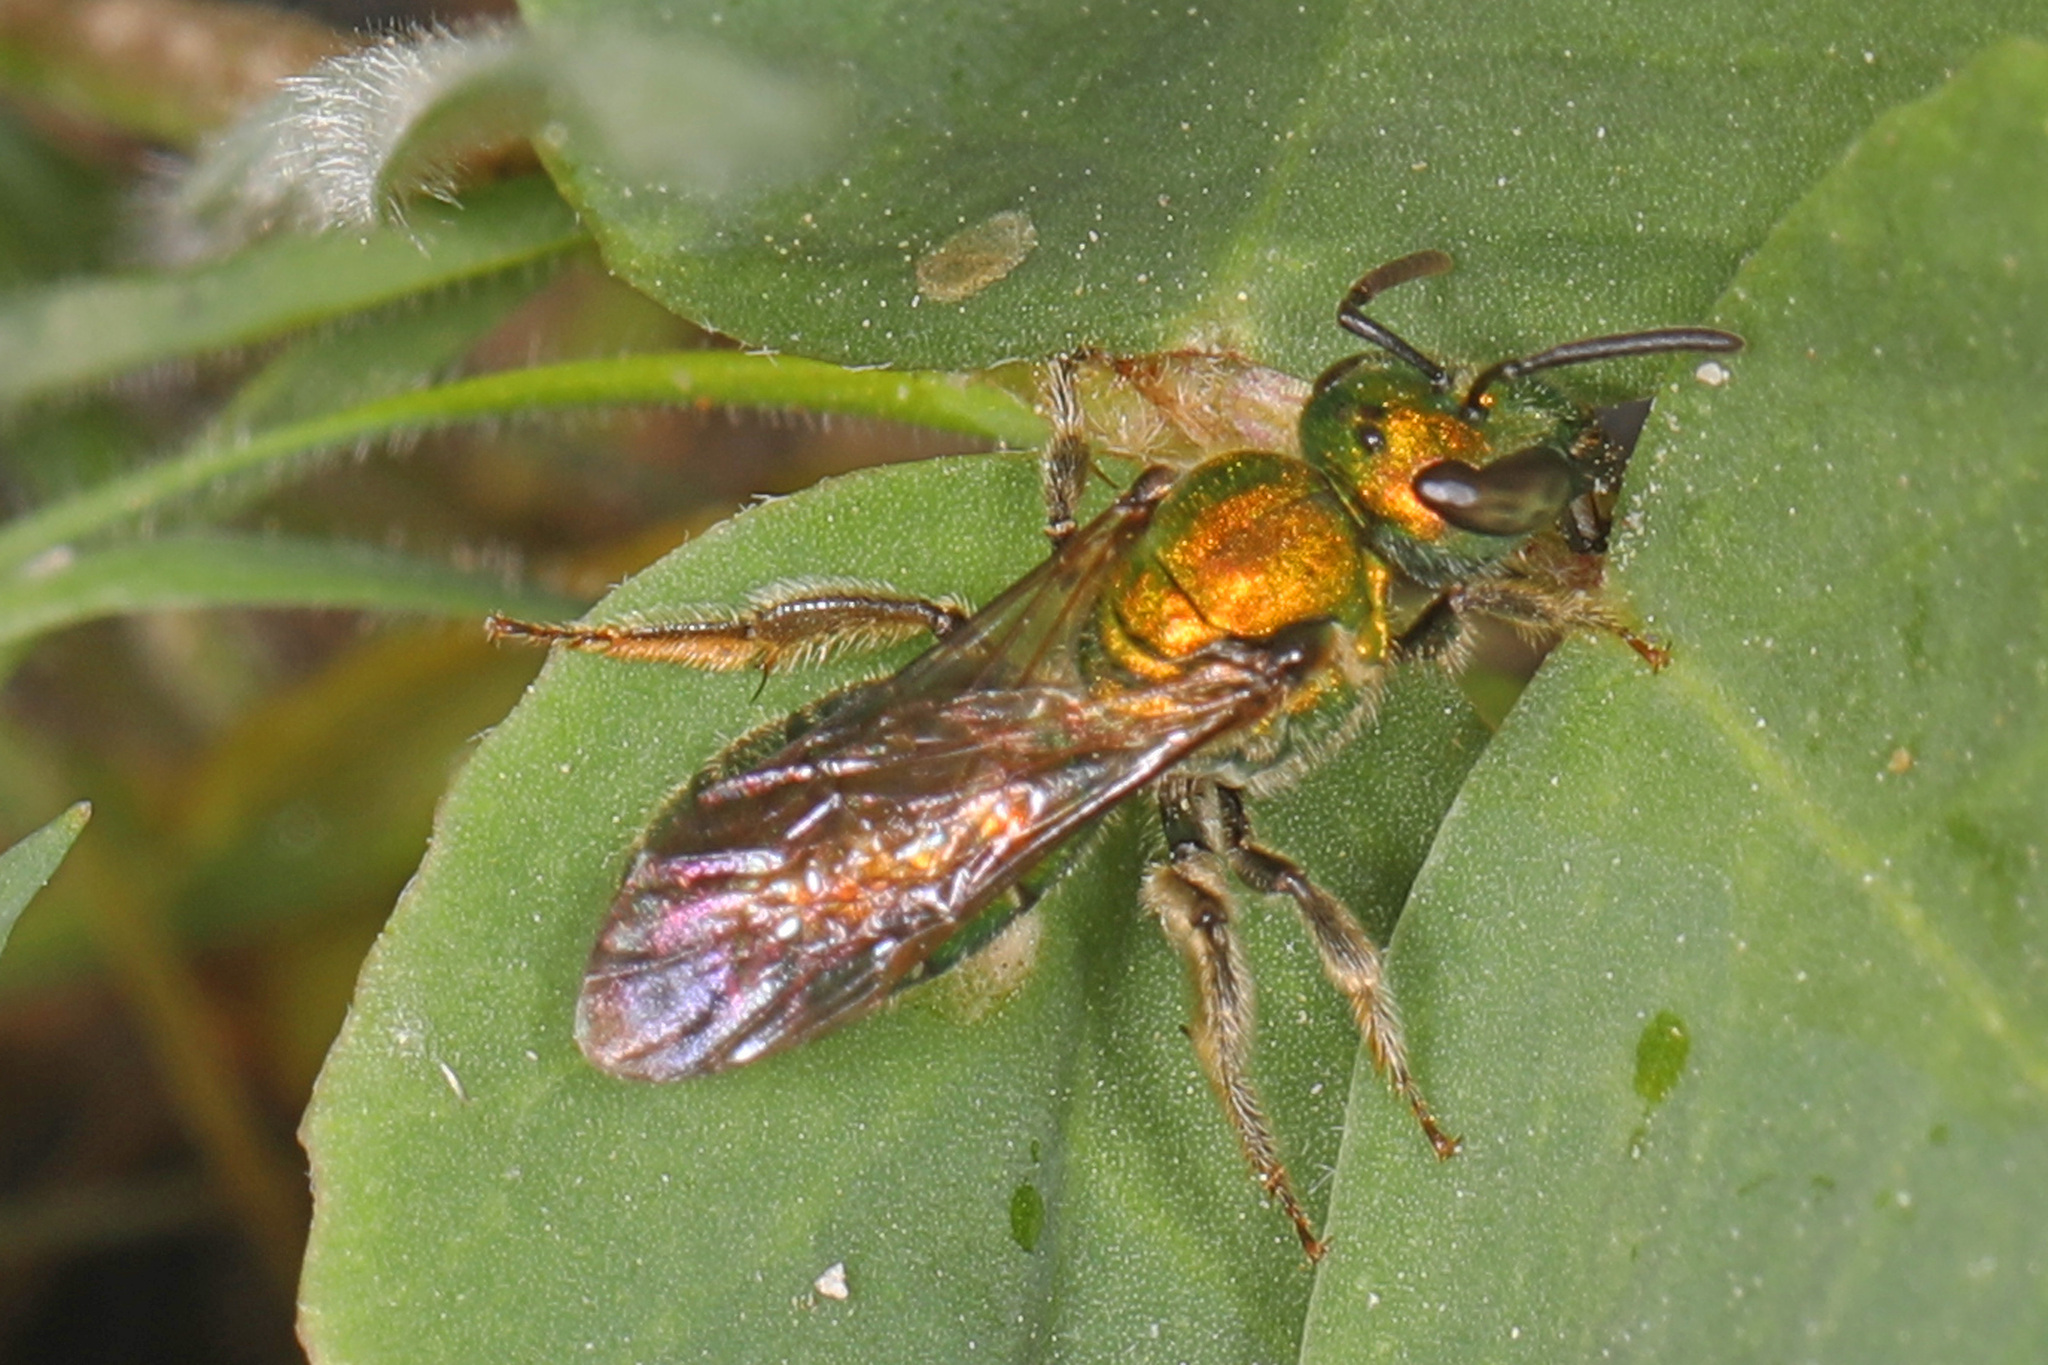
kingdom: Animalia
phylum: Arthropoda
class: Insecta
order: Hymenoptera
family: Halictidae
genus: Augochlora
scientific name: Augochlora pura
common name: Pure green sweat bee
